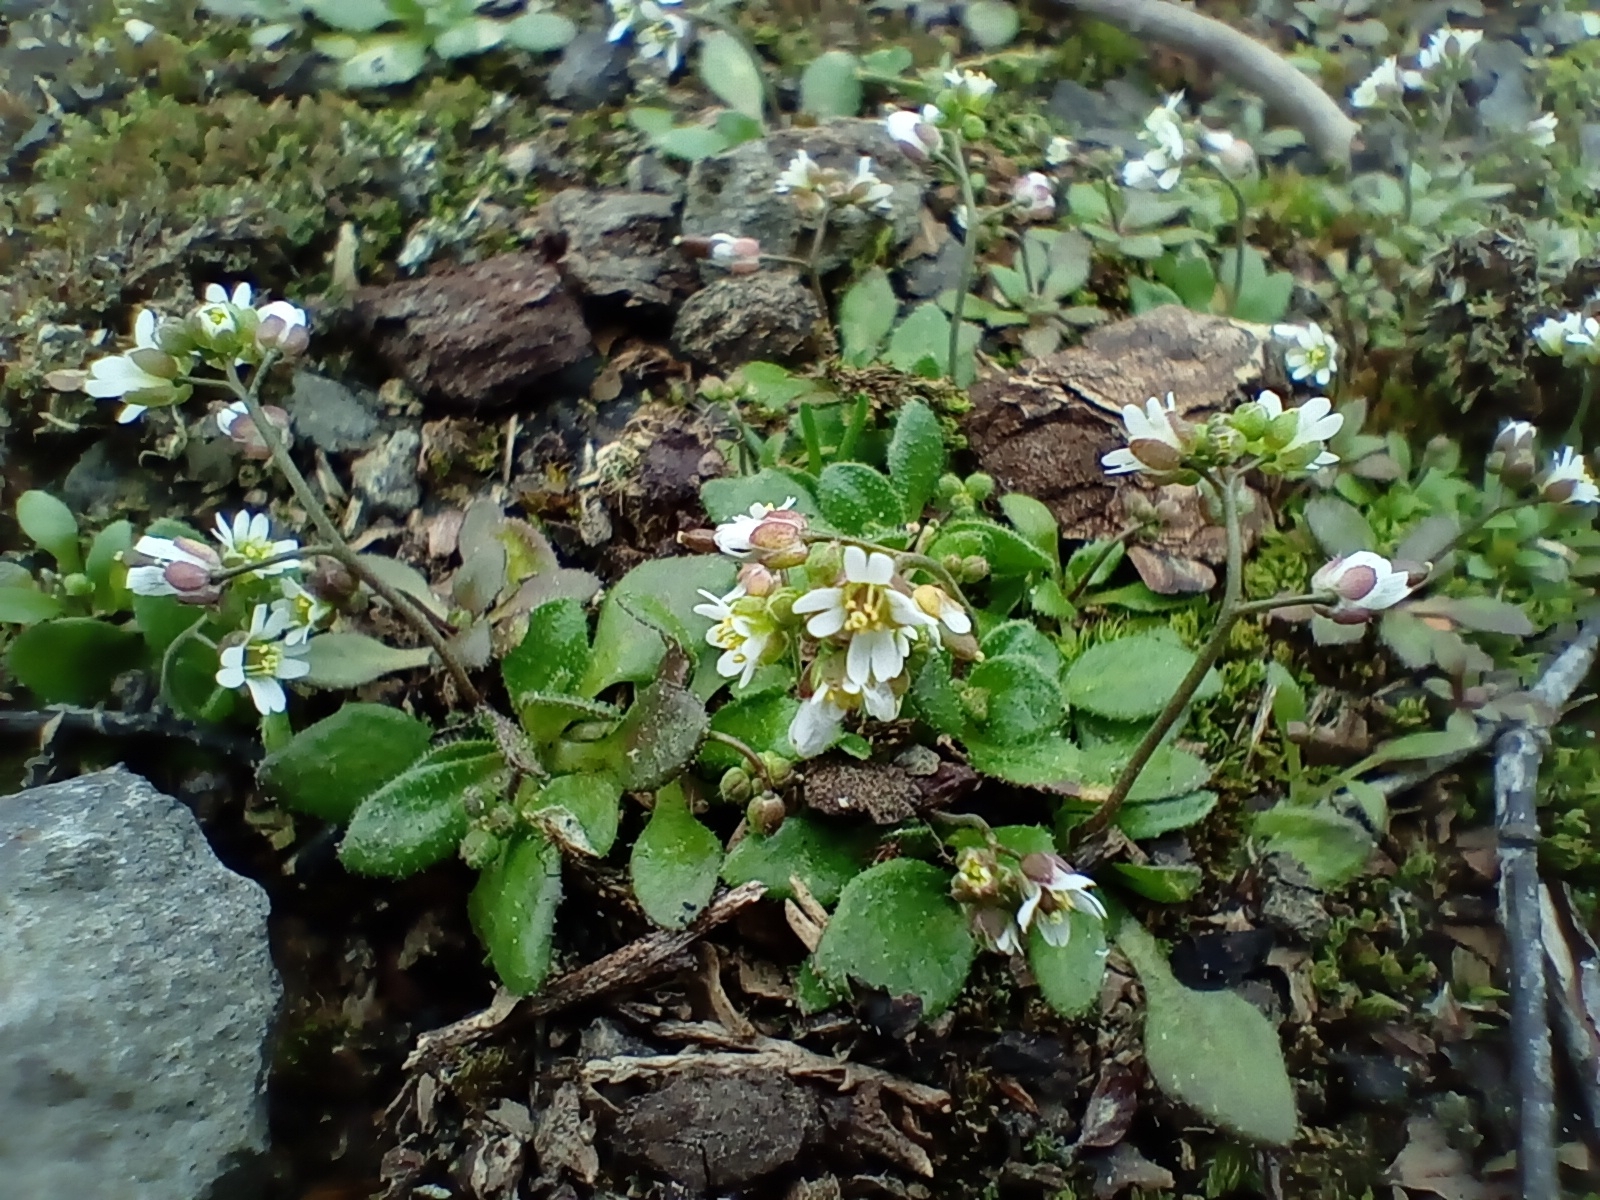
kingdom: Plantae
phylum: Tracheophyta
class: Magnoliopsida
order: Brassicales
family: Brassicaceae
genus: Draba
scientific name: Draba verna
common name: Spring draba
